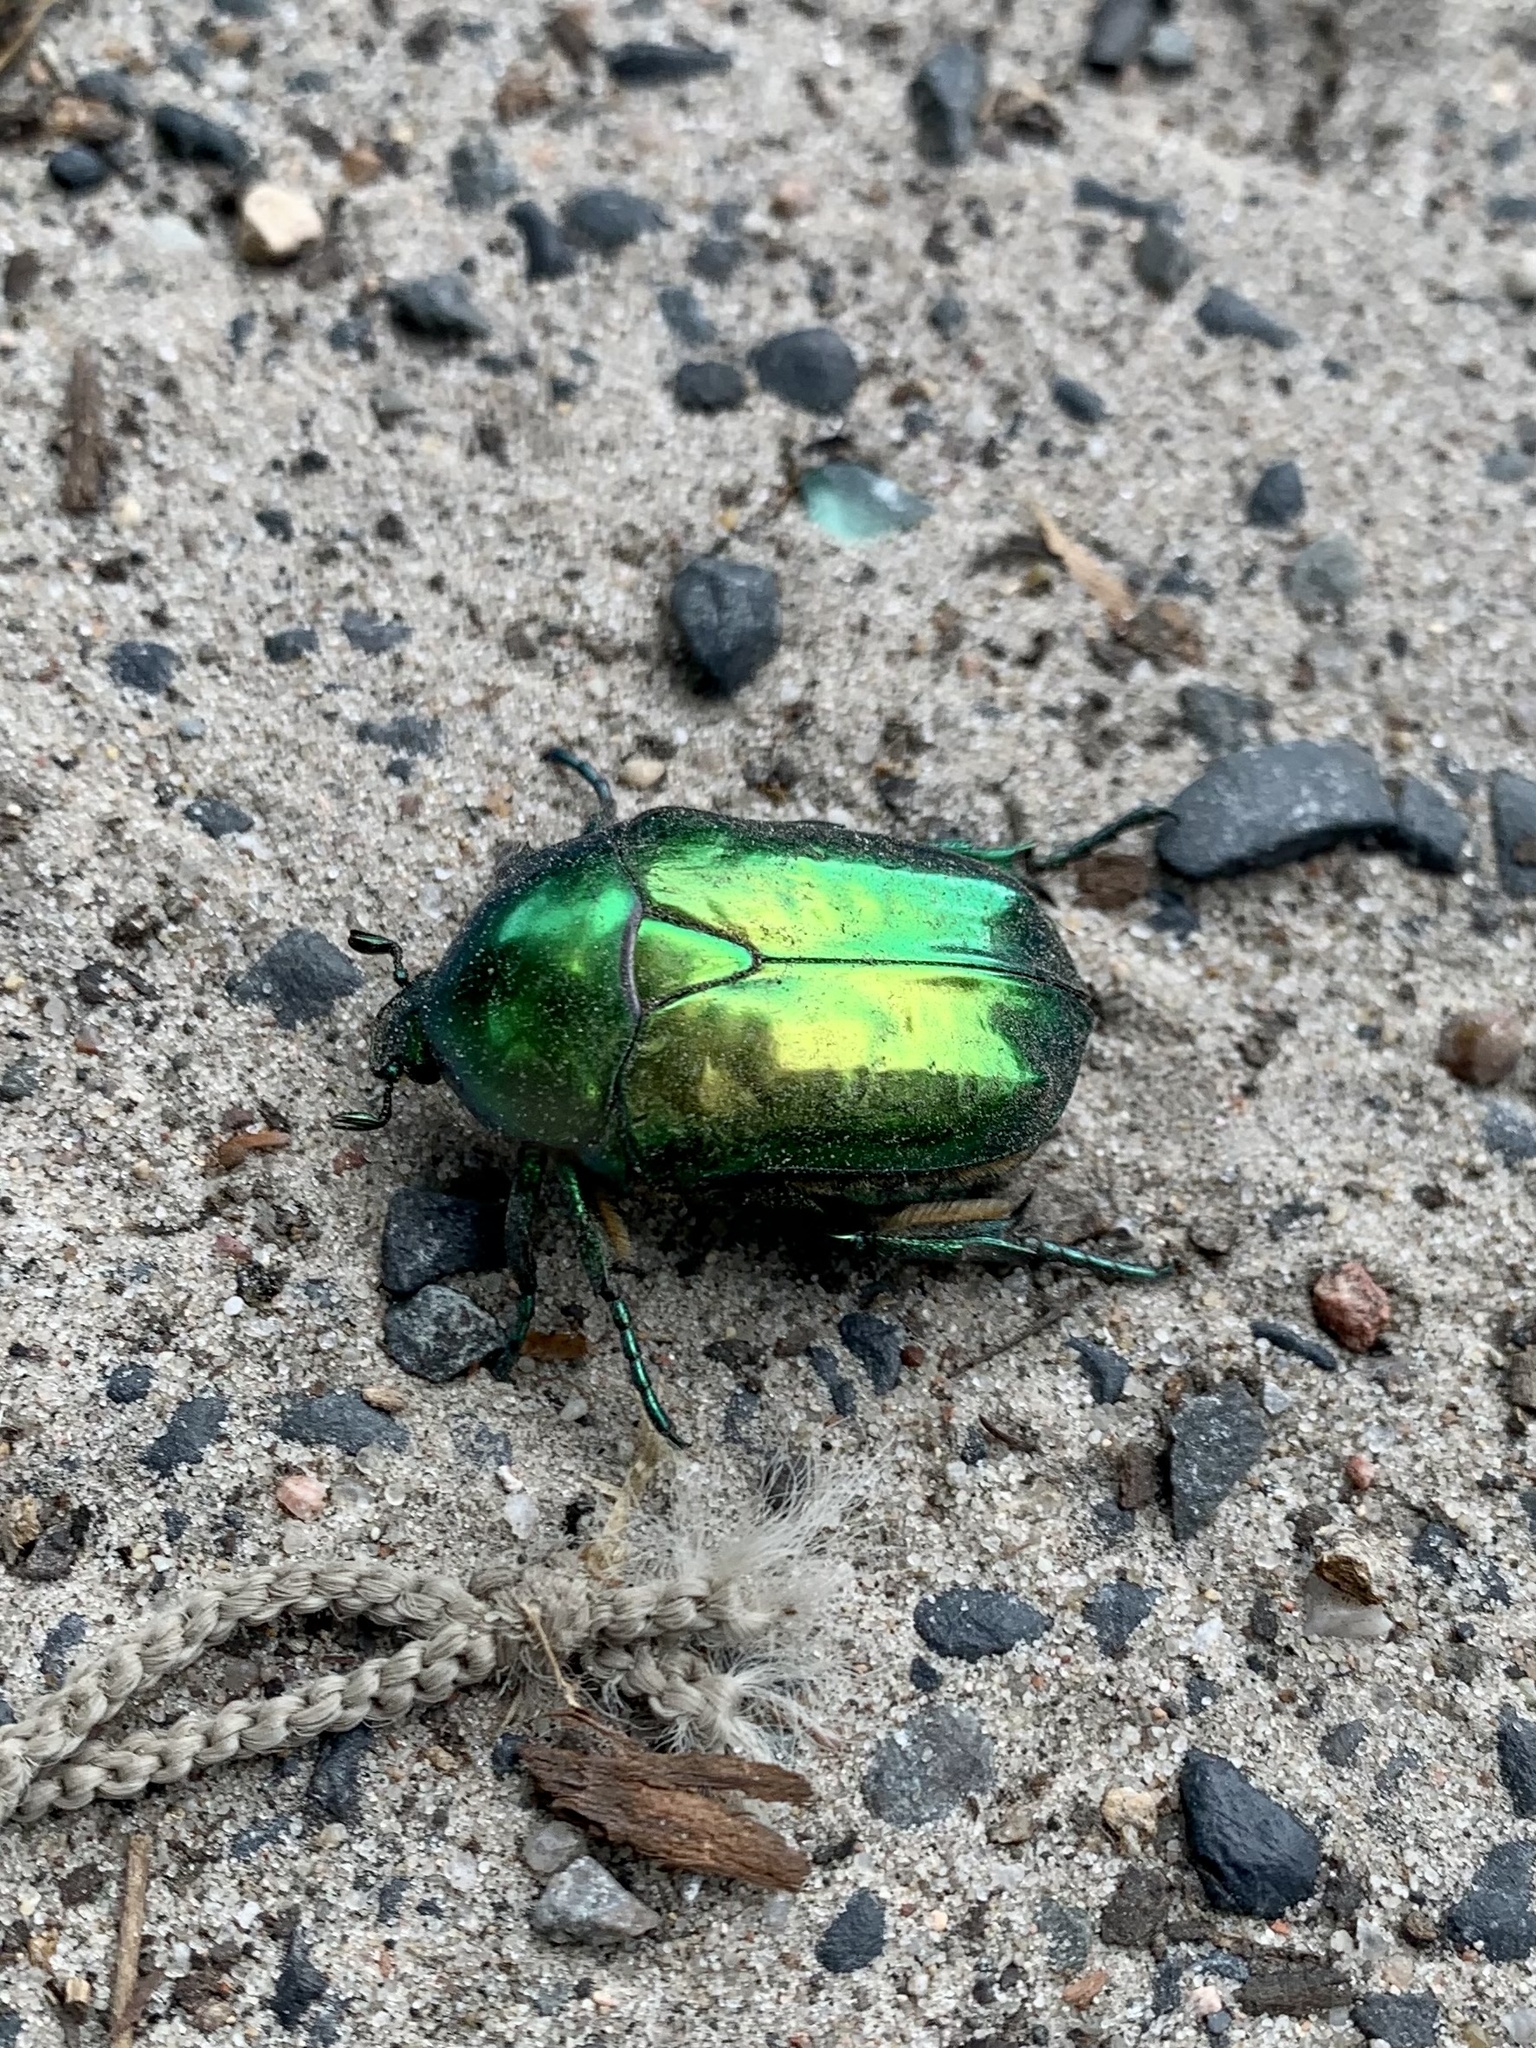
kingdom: Animalia
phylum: Arthropoda
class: Insecta
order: Coleoptera
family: Scarabaeidae
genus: Protaetia
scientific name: Protaetia speciosissima
